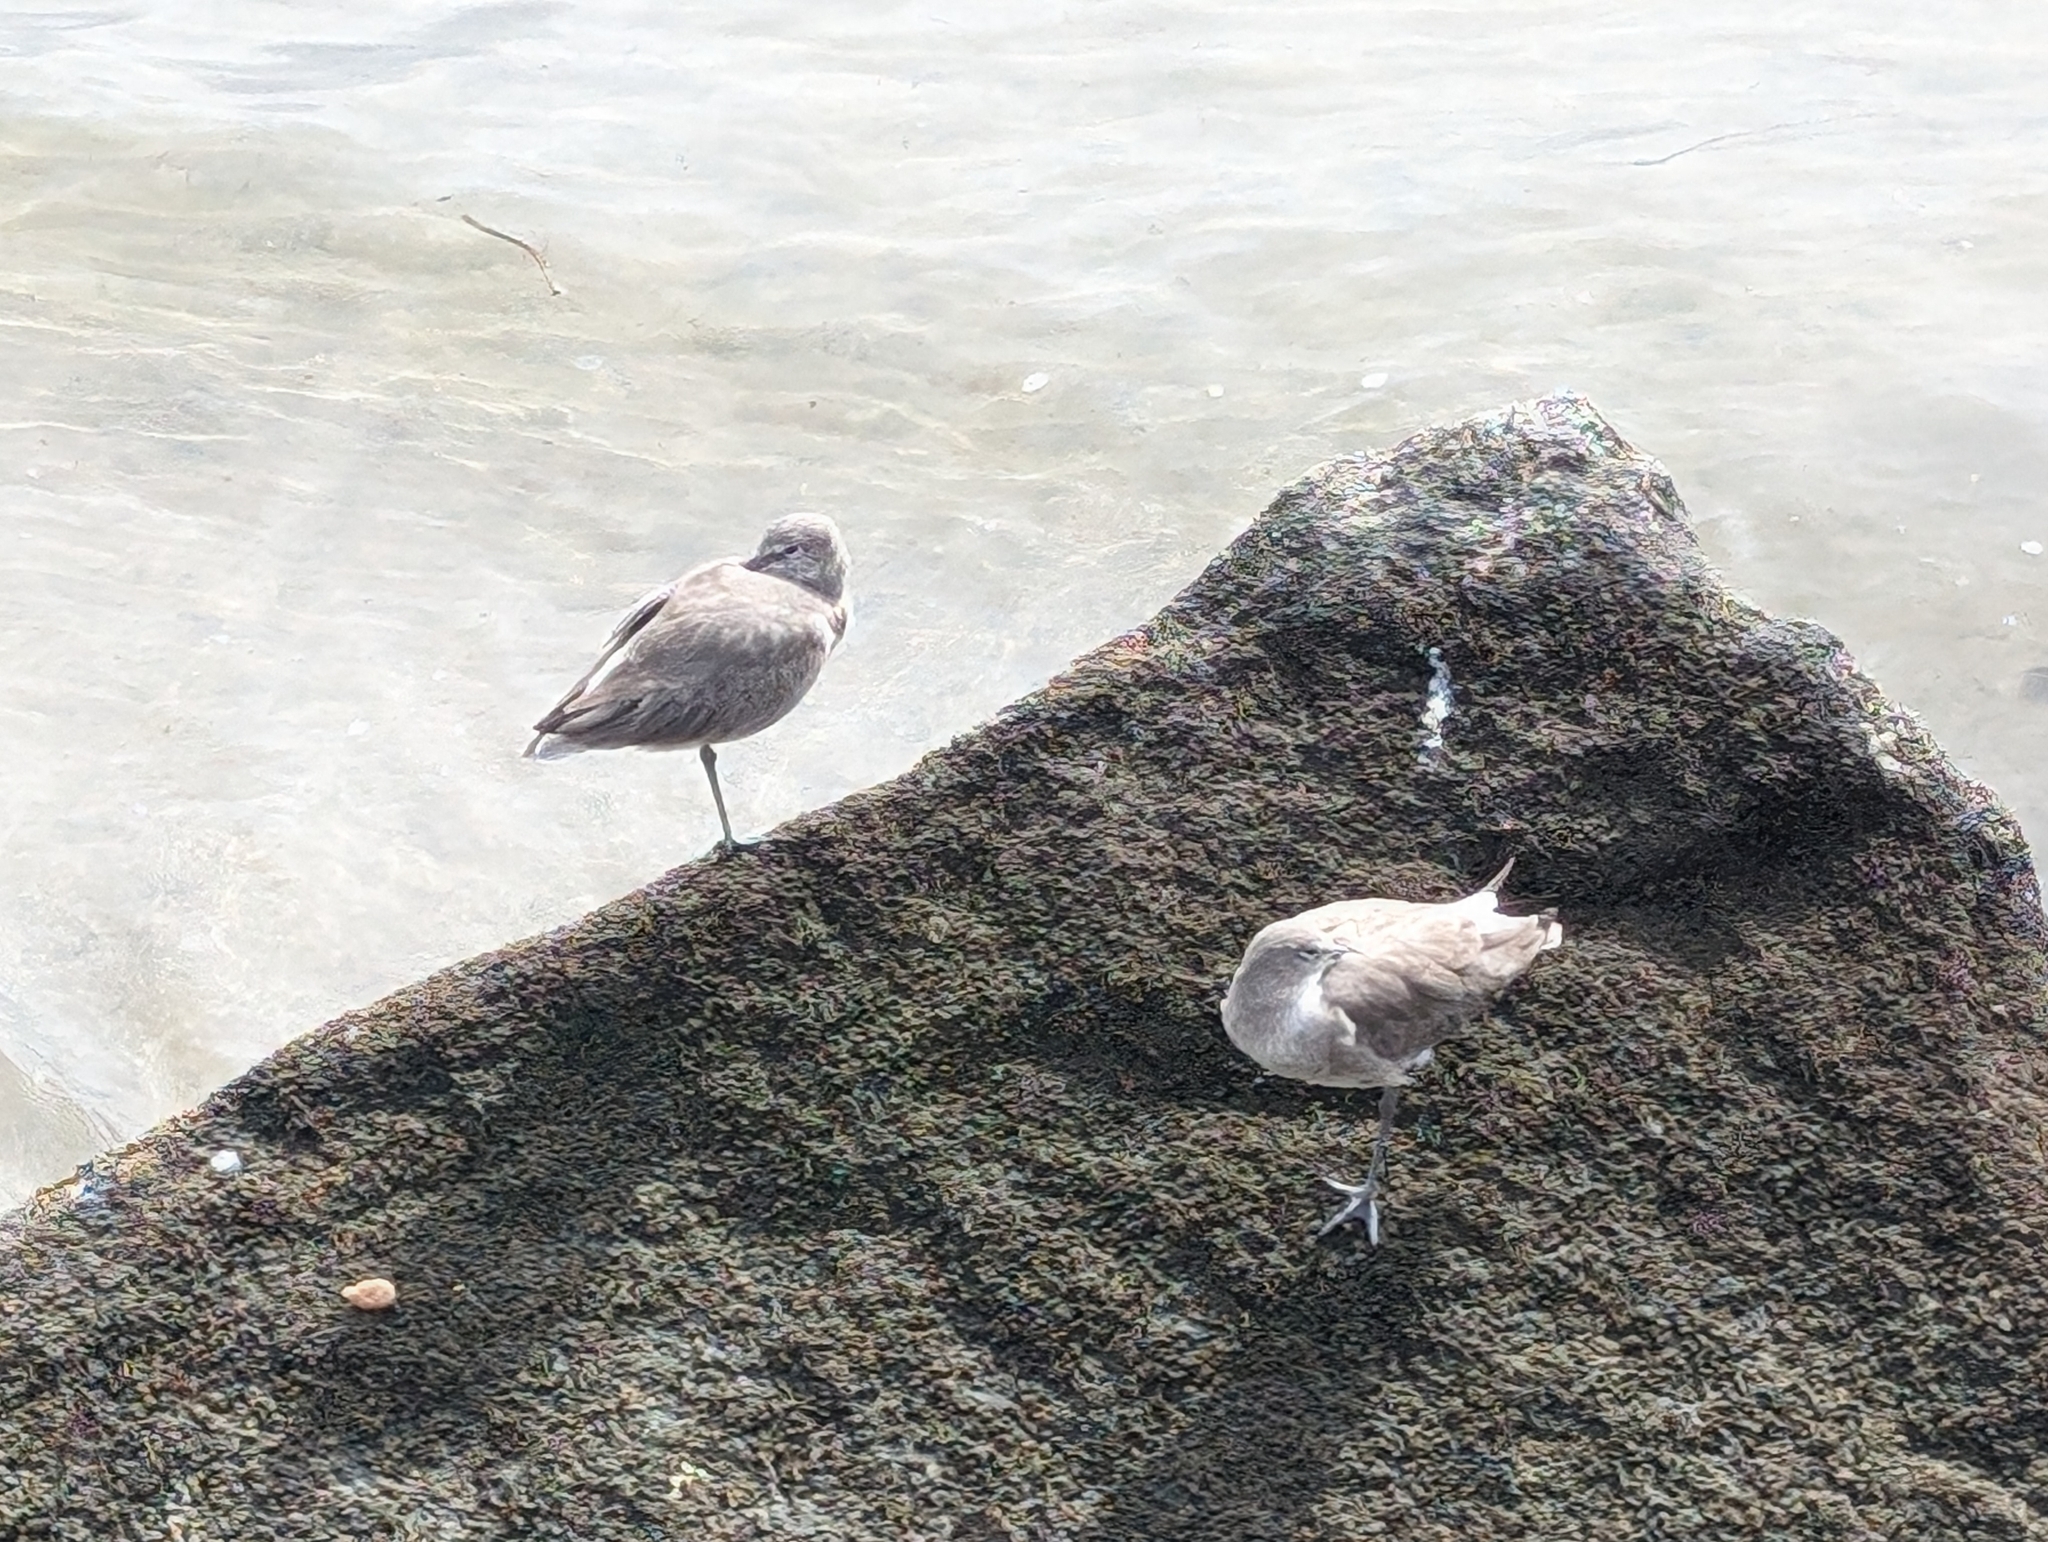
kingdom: Animalia
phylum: Chordata
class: Aves
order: Charadriiformes
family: Scolopacidae
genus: Tringa
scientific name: Tringa semipalmata
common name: Willet
